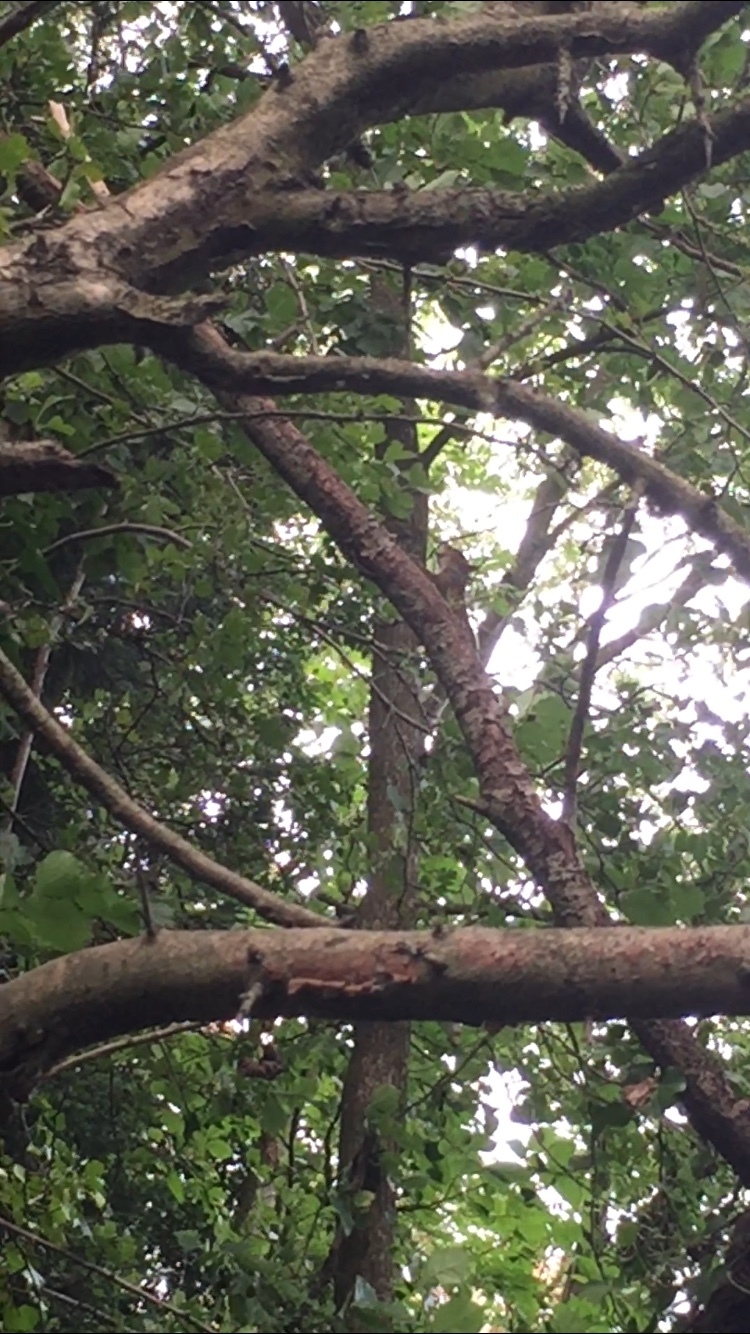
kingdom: Animalia
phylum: Chordata
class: Mammalia
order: Rodentia
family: Sciuridae
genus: Sciurus
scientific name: Sciurus carolinensis
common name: Eastern gray squirrel
